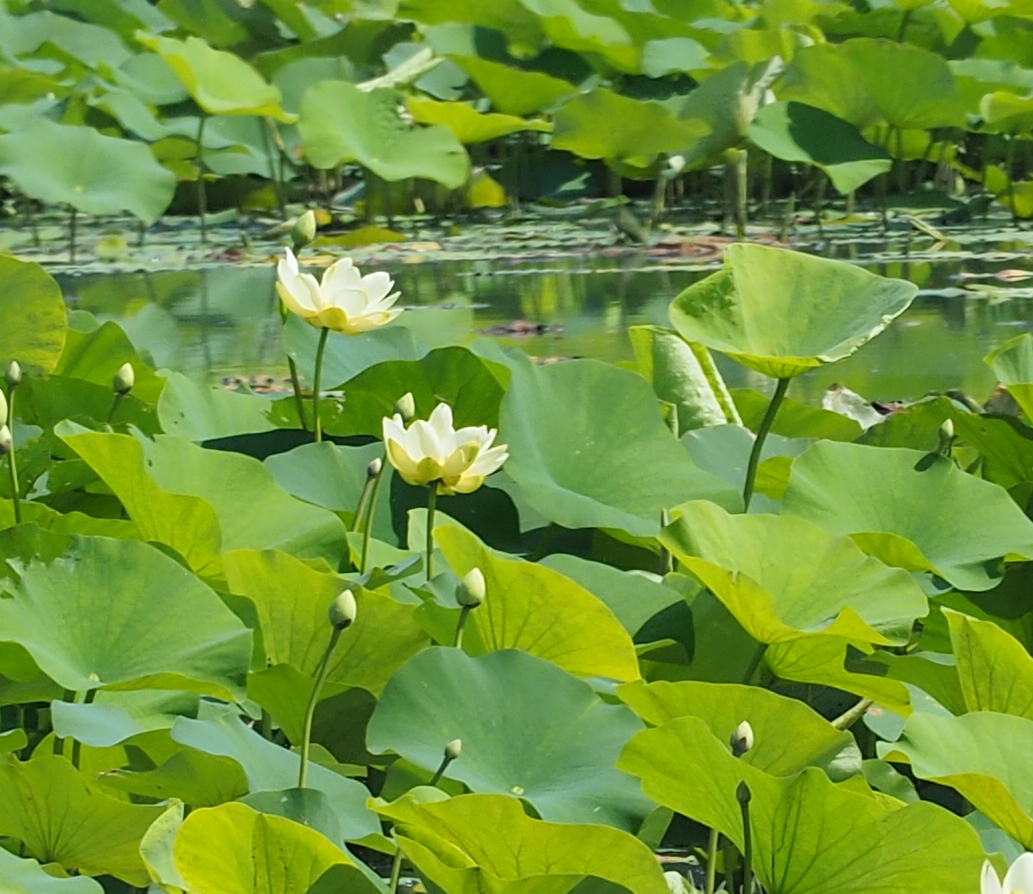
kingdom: Plantae
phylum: Tracheophyta
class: Magnoliopsida
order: Proteales
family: Nelumbonaceae
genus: Nelumbo
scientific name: Nelumbo lutea
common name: American lotus
